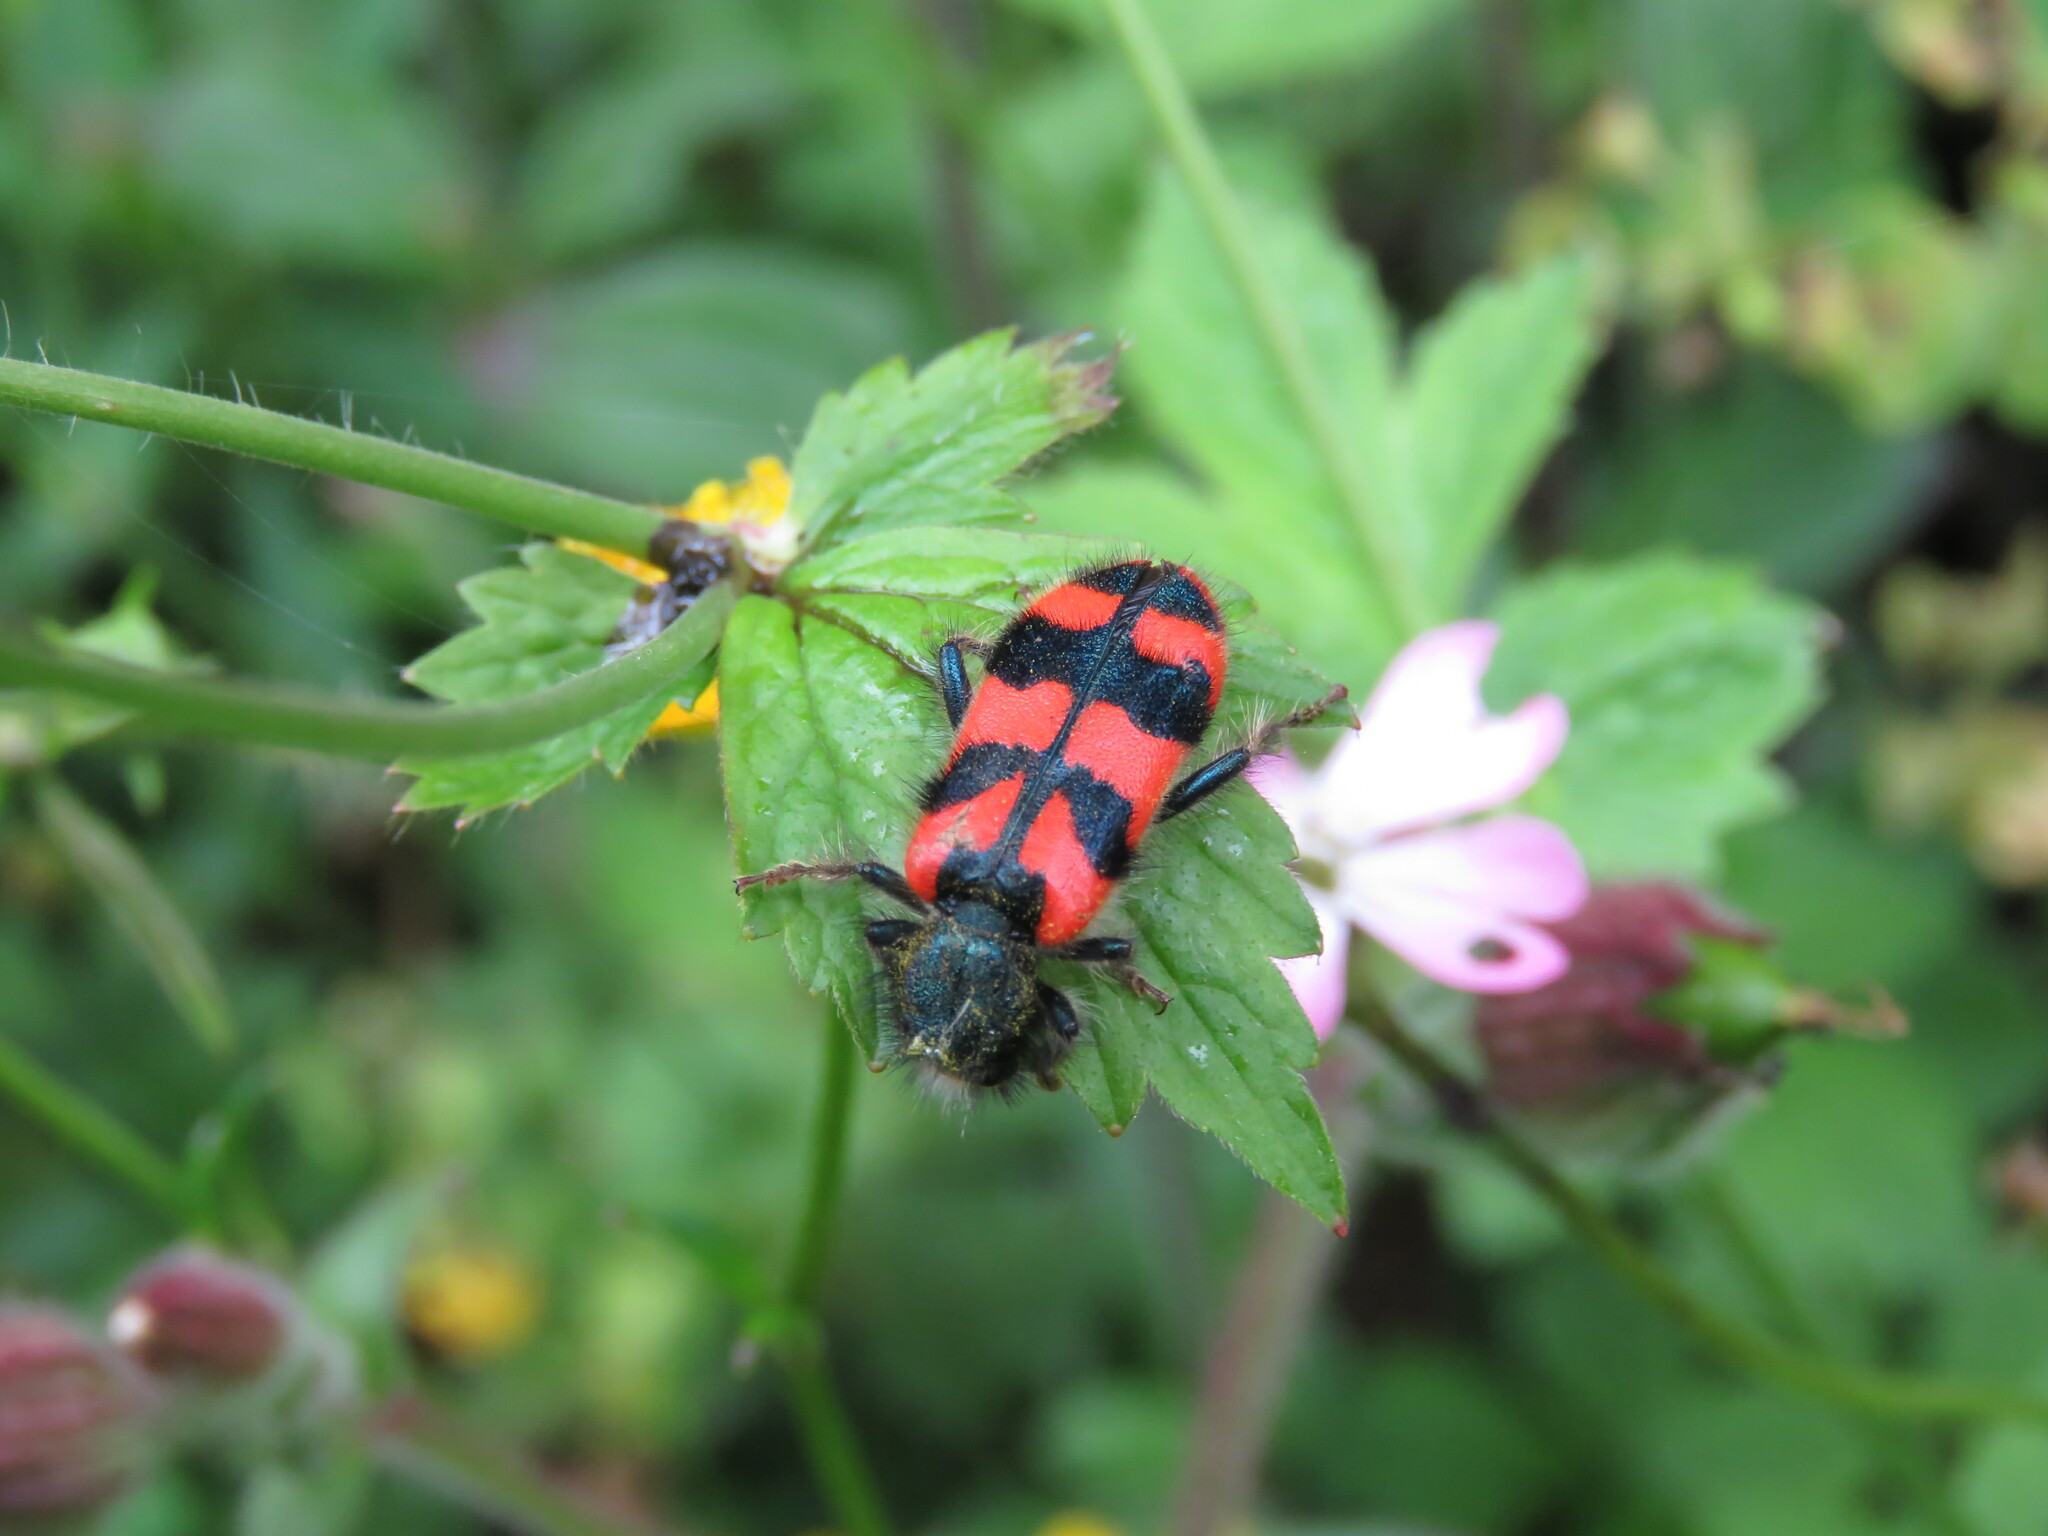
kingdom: Animalia
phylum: Arthropoda
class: Insecta
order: Coleoptera
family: Cleridae
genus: Trichodes
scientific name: Trichodes alvearius
